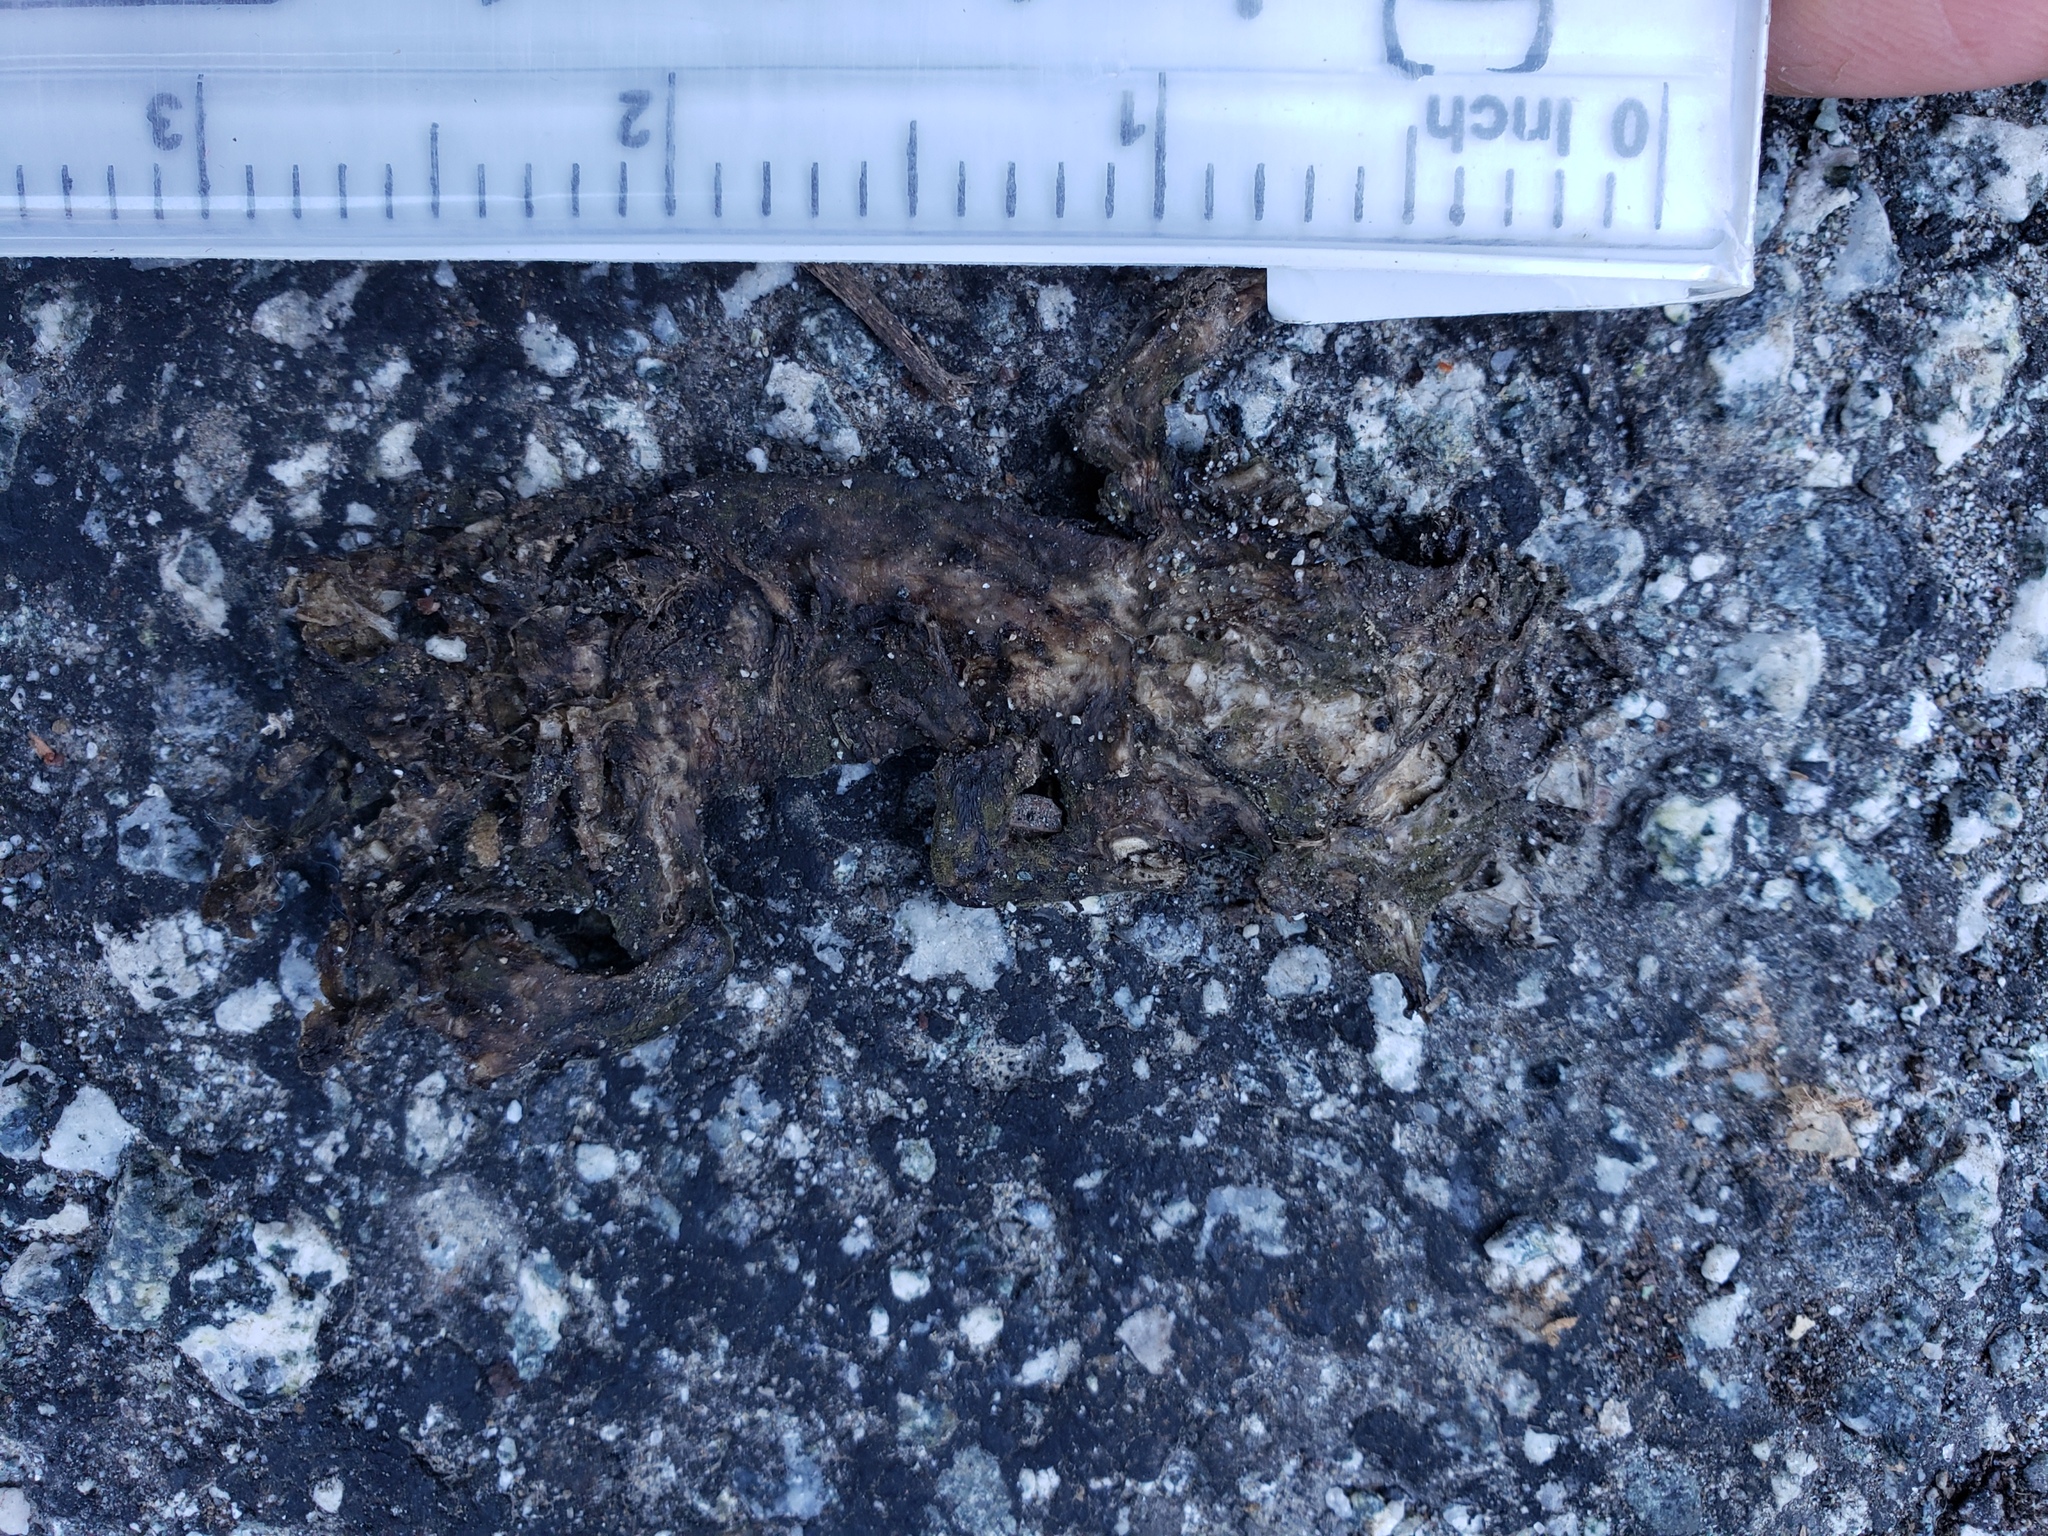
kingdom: Animalia
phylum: Chordata
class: Amphibia
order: Caudata
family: Salamandridae
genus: Taricha
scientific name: Taricha
